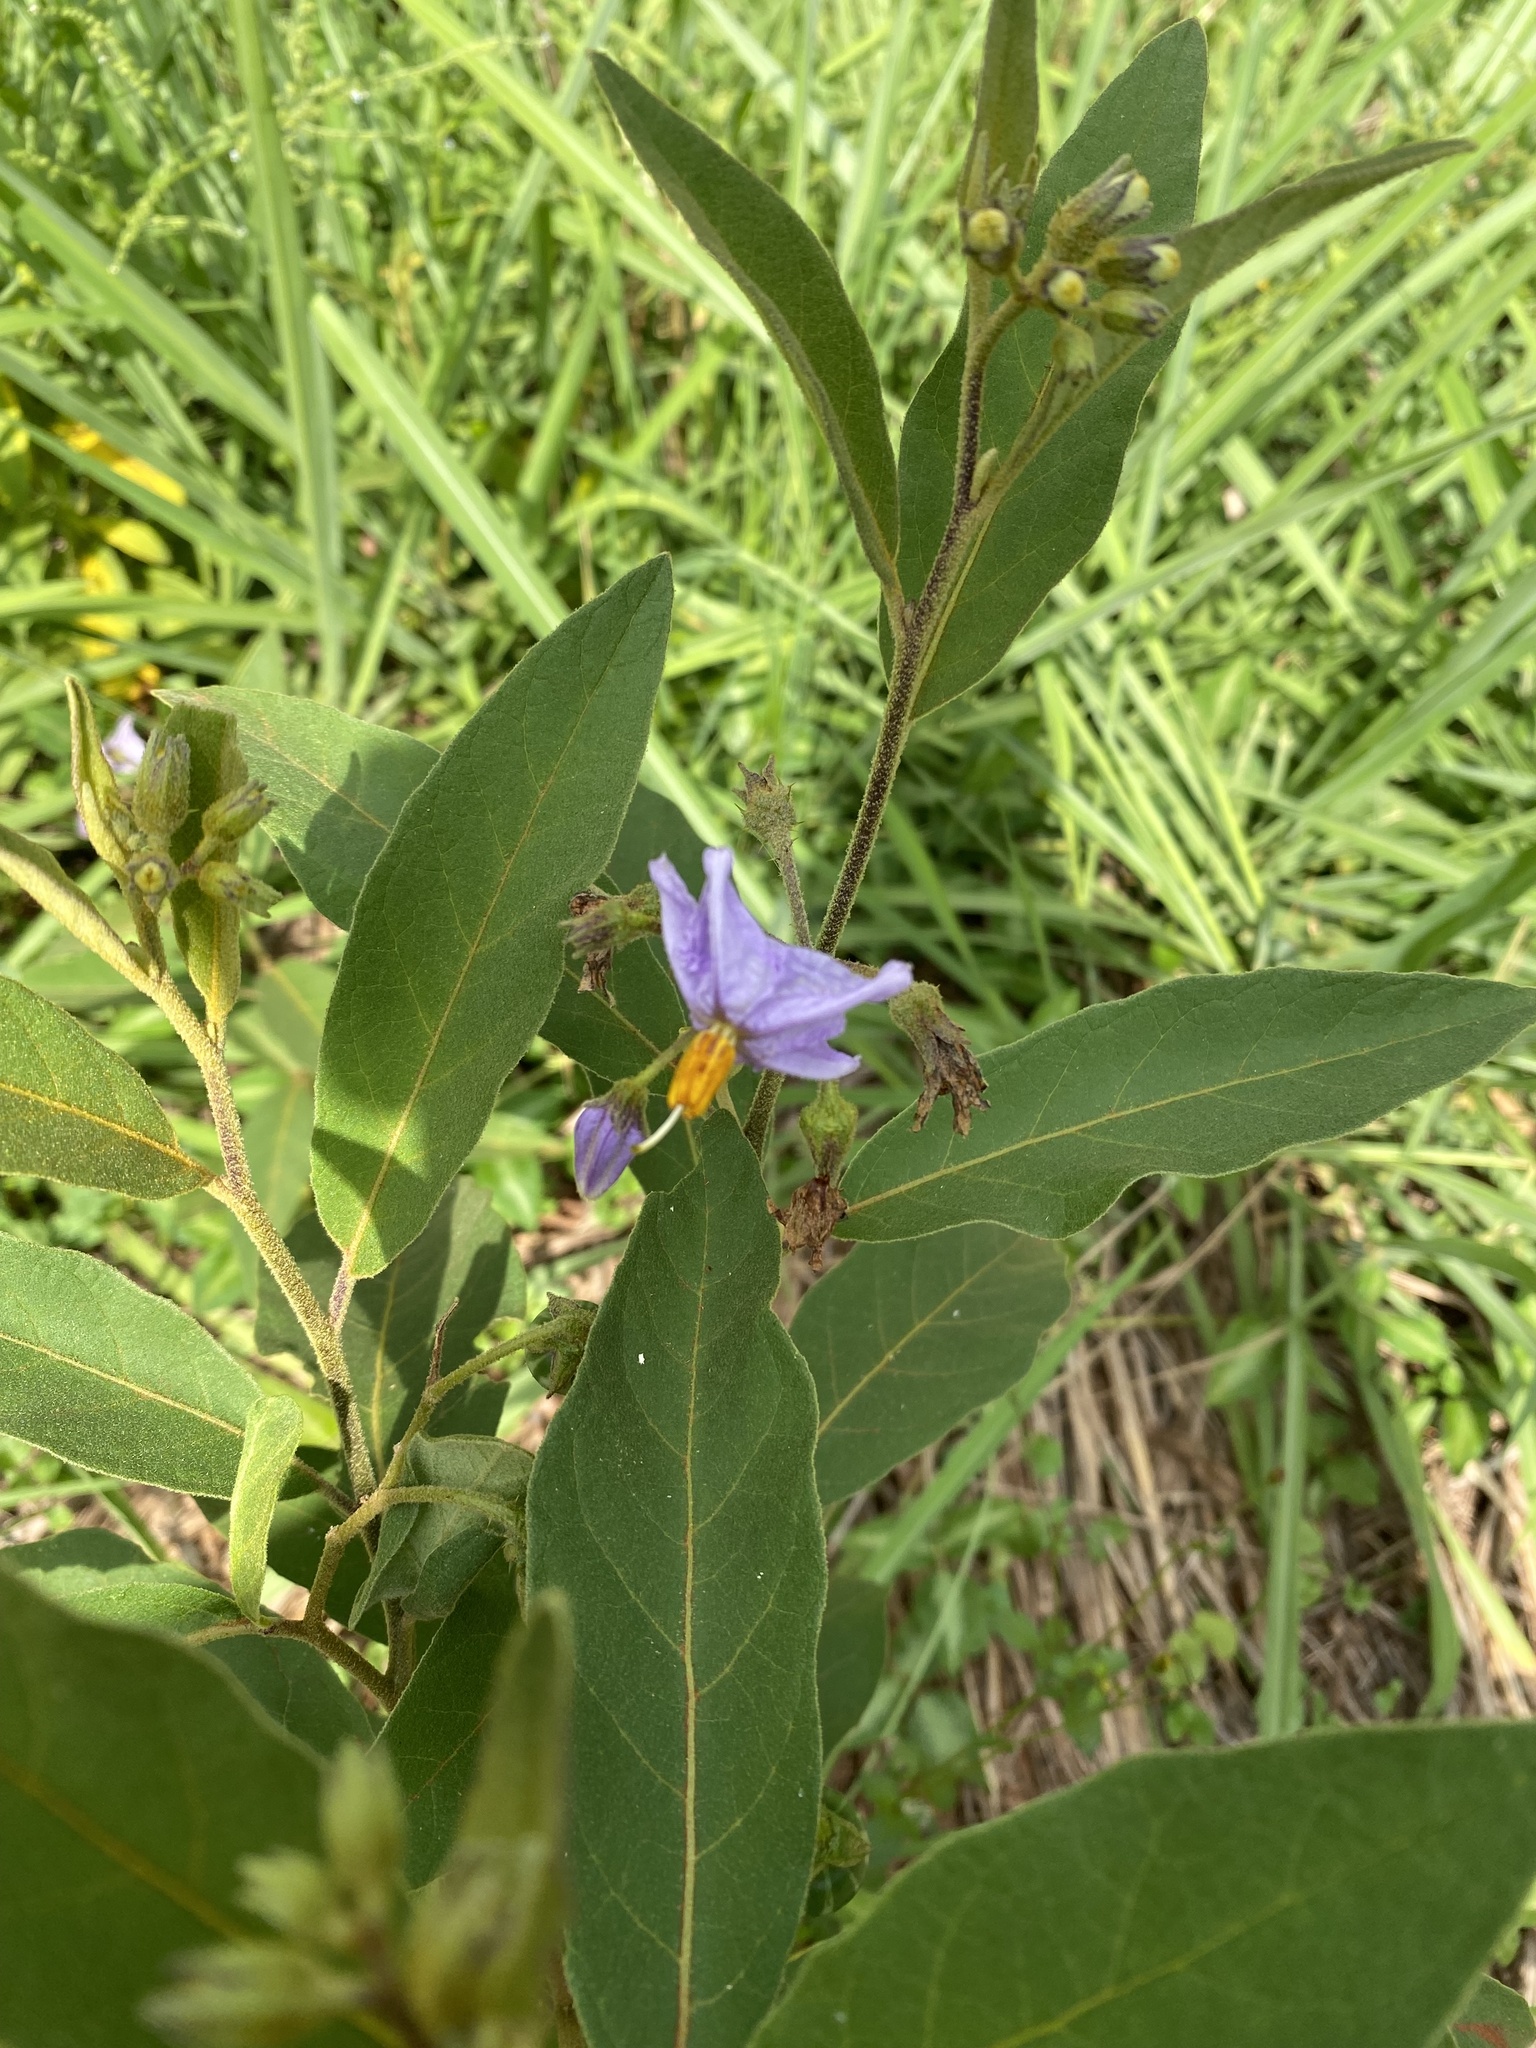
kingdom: Plantae
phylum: Tracheophyta
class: Magnoliopsida
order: Solanales
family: Solanaceae
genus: Solanum
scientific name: Solanum campylacanthum
